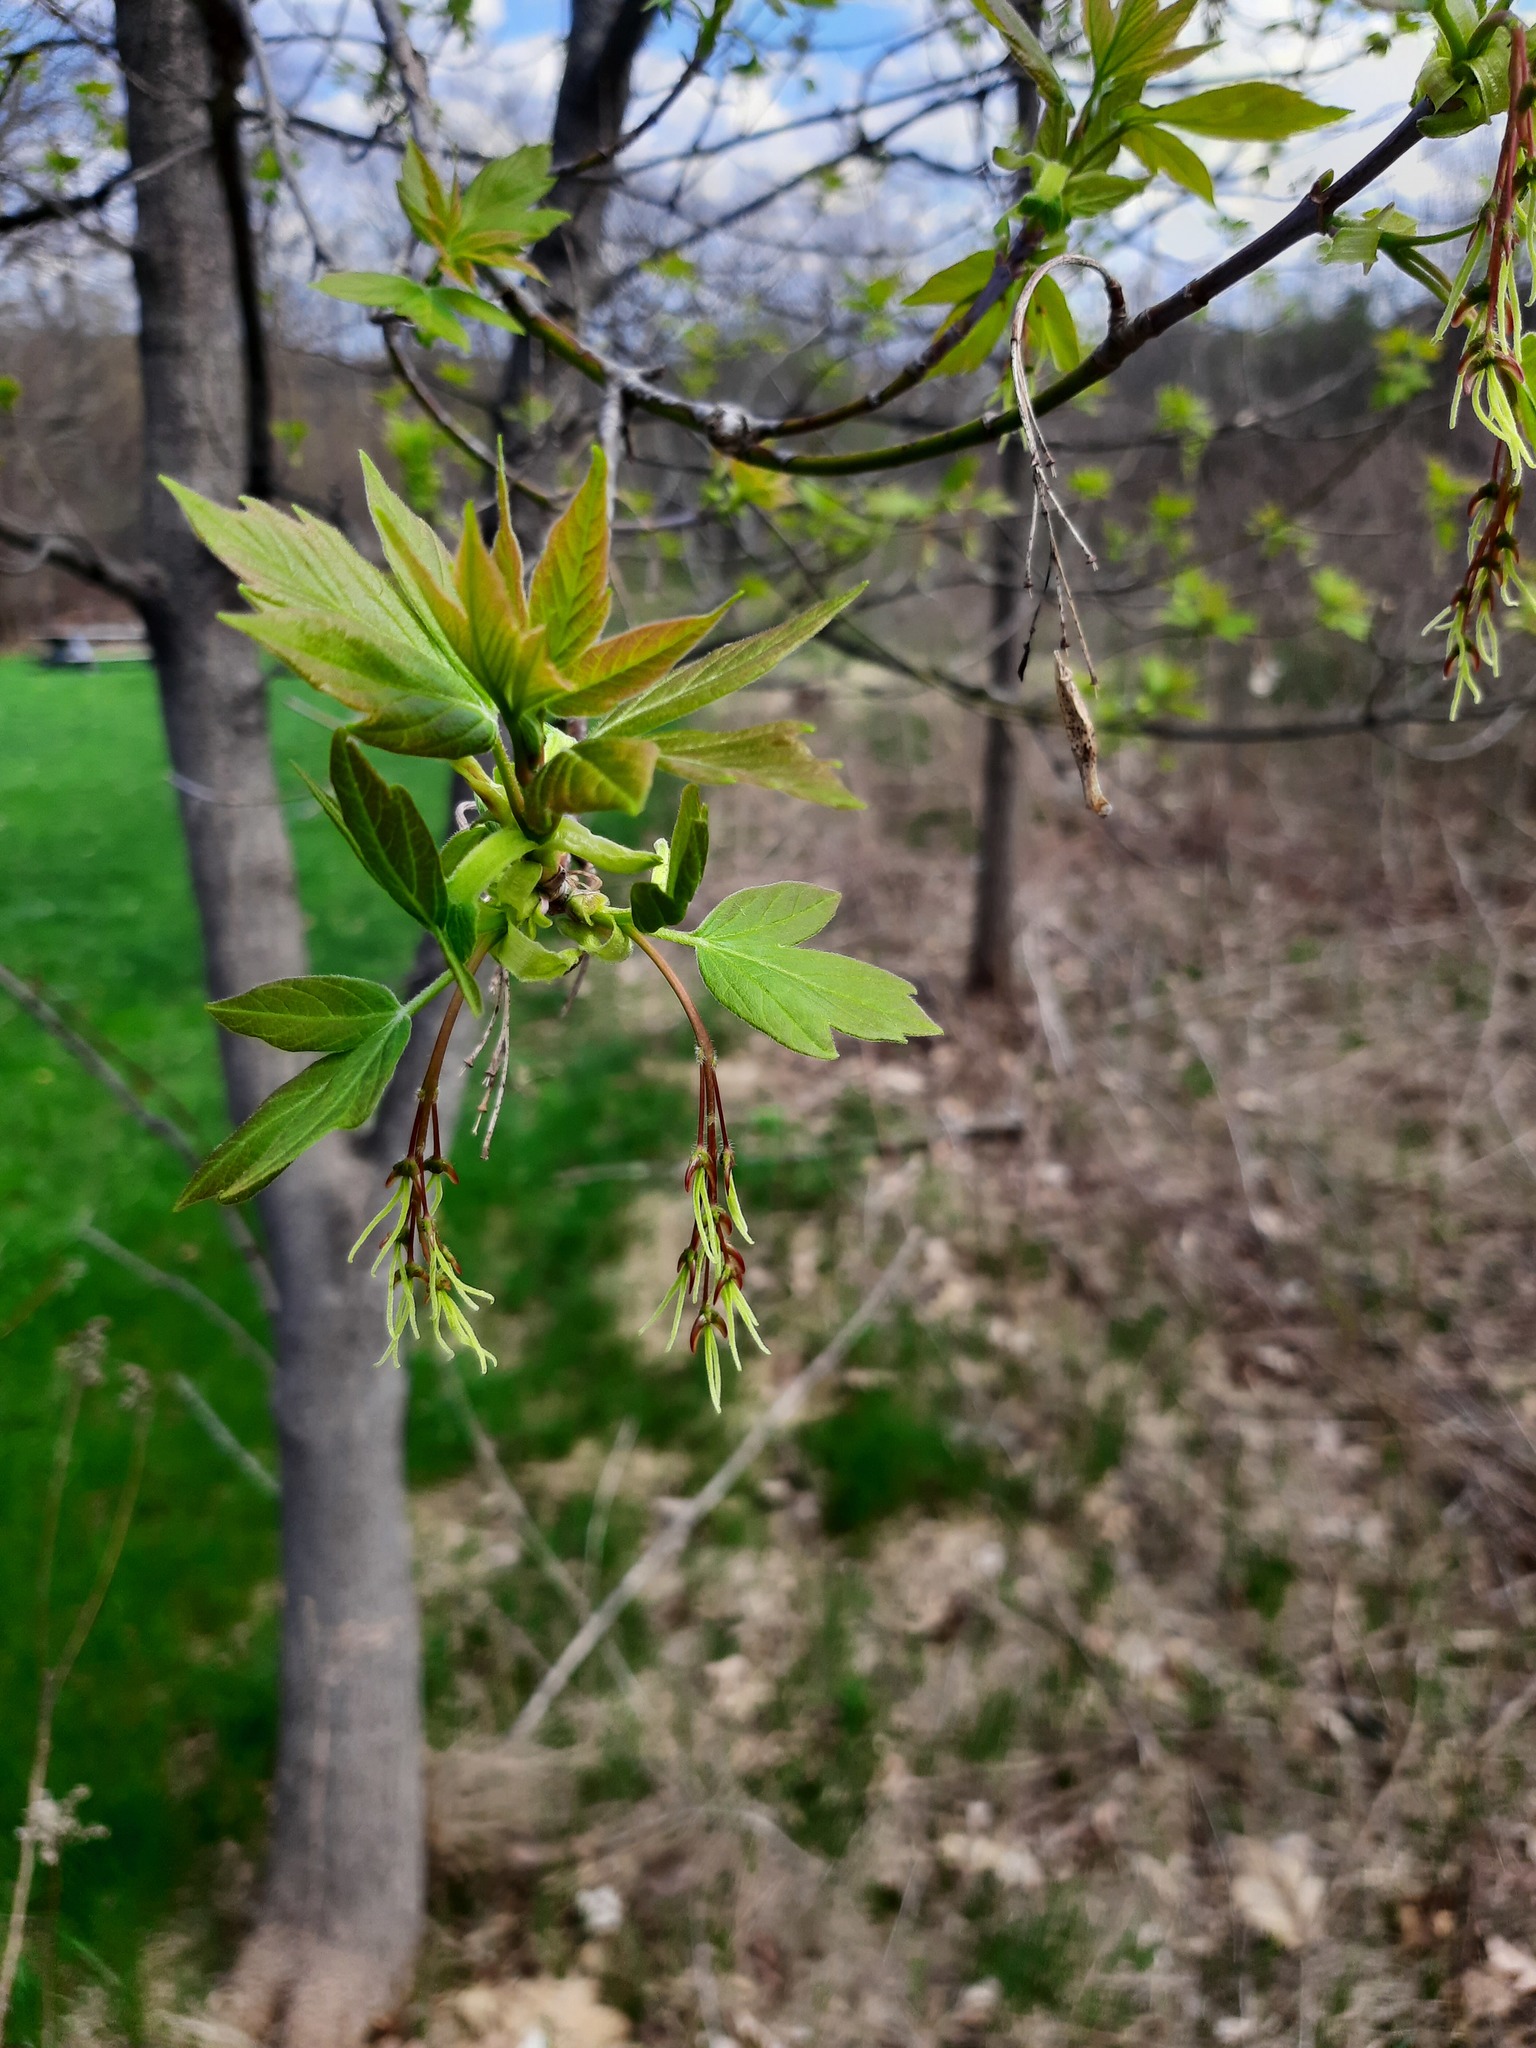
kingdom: Plantae
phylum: Tracheophyta
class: Magnoliopsida
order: Sapindales
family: Sapindaceae
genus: Acer
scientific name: Acer negundo
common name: Ashleaf maple
